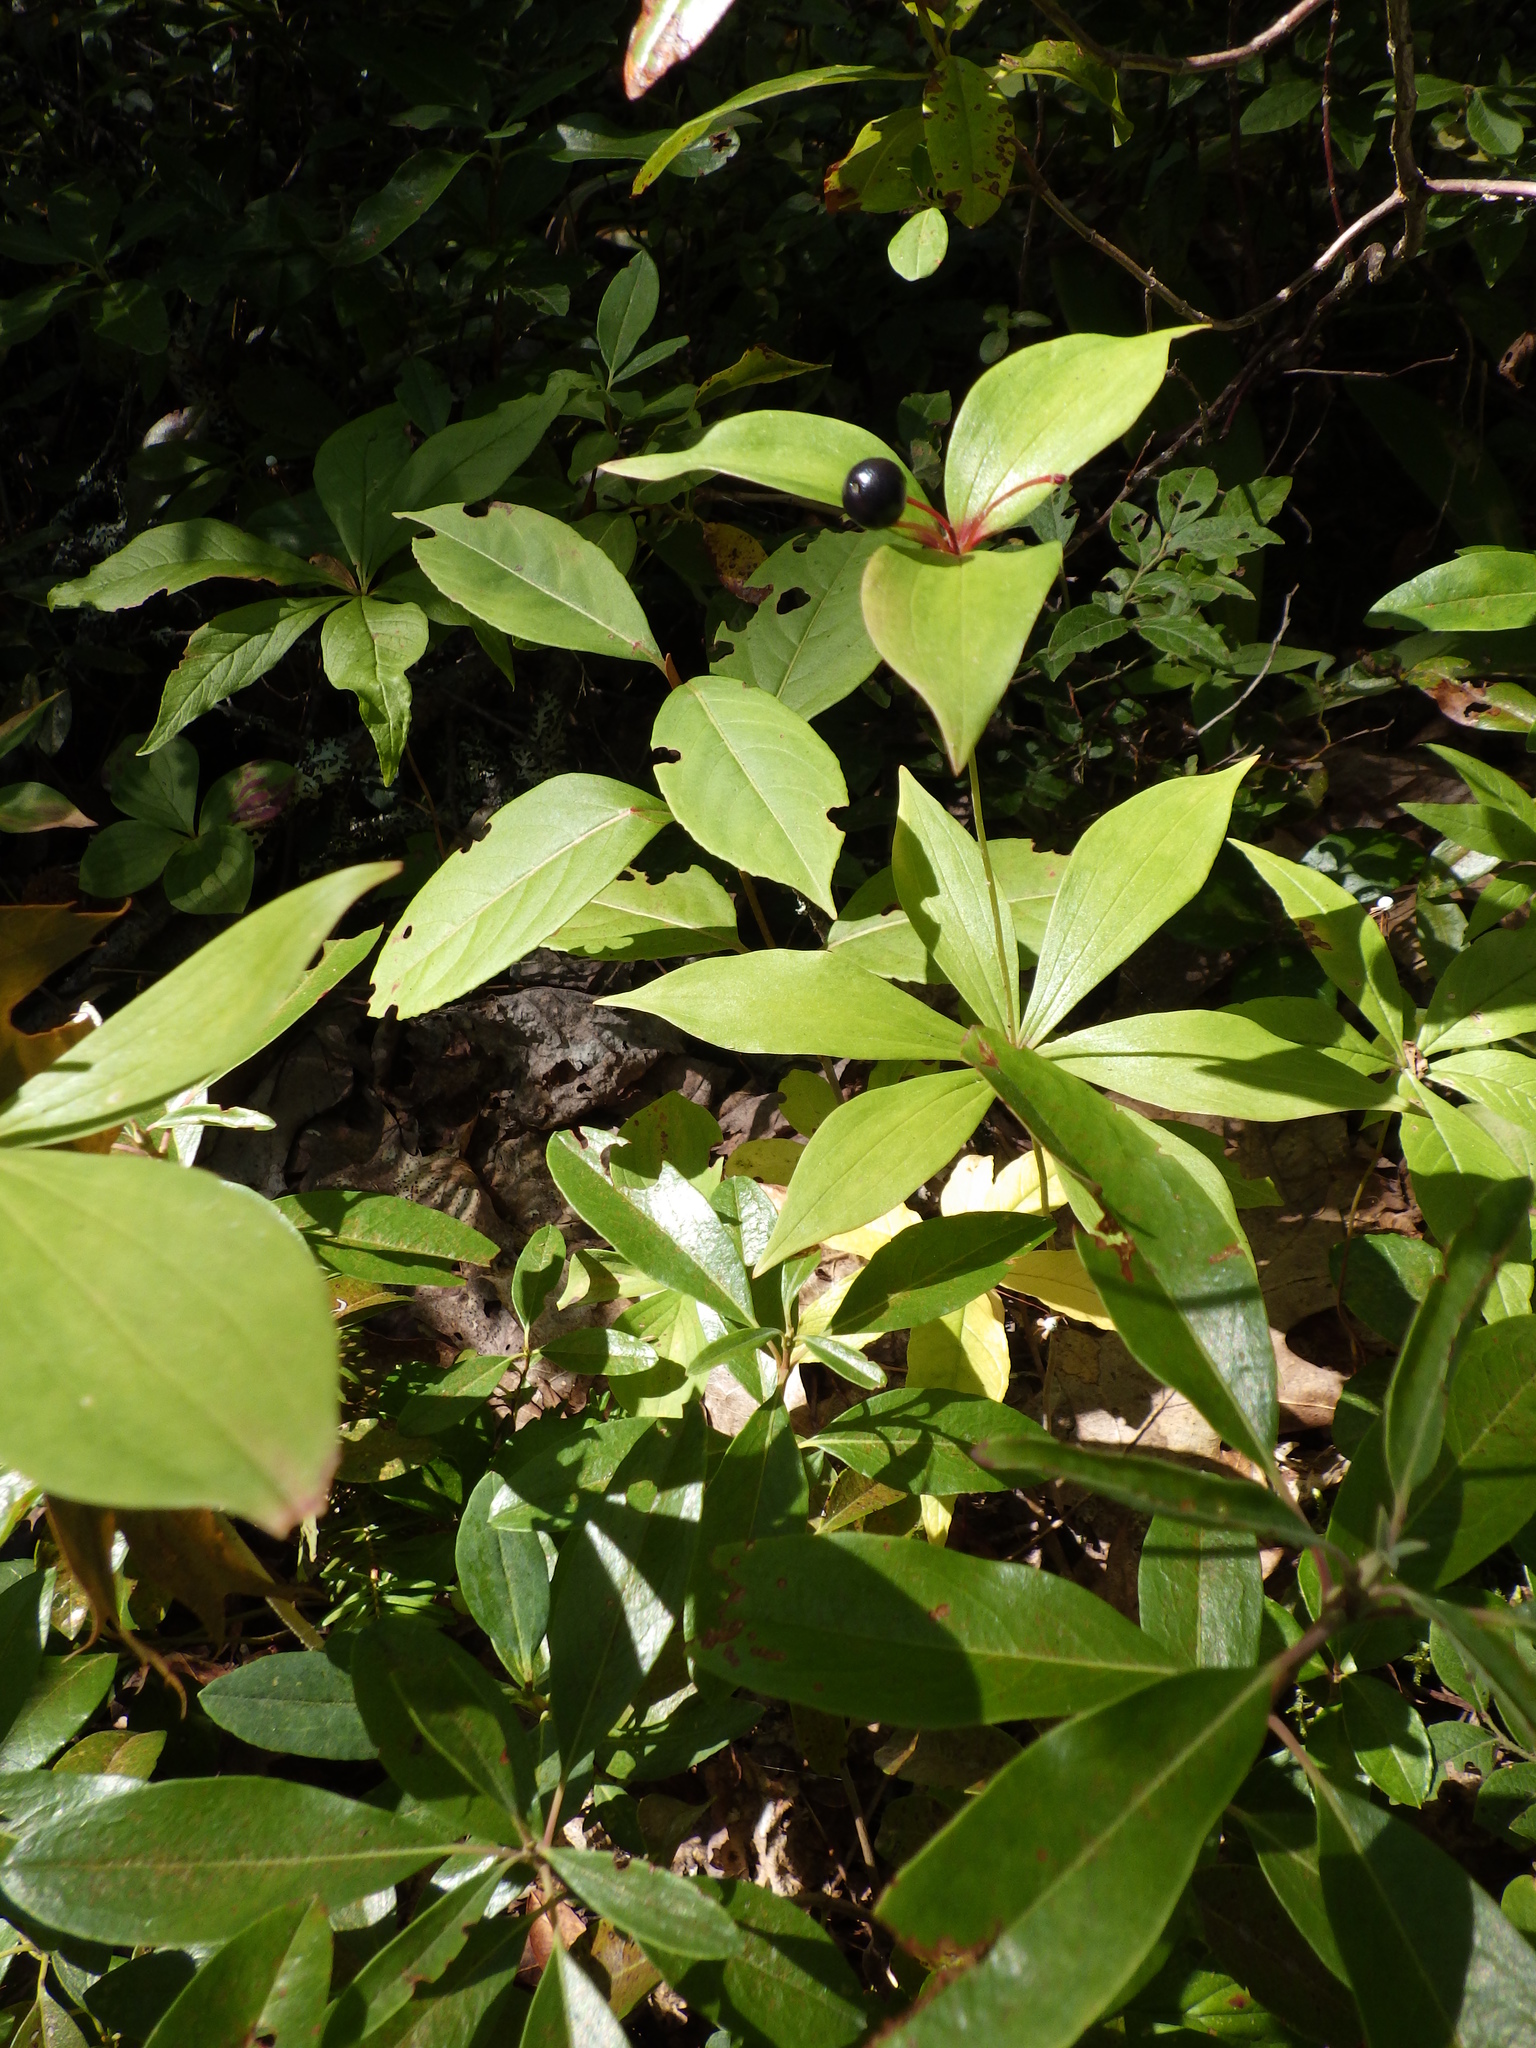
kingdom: Plantae
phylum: Tracheophyta
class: Liliopsida
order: Liliales
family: Liliaceae
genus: Medeola
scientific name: Medeola virginiana
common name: Indian cucumber-root
